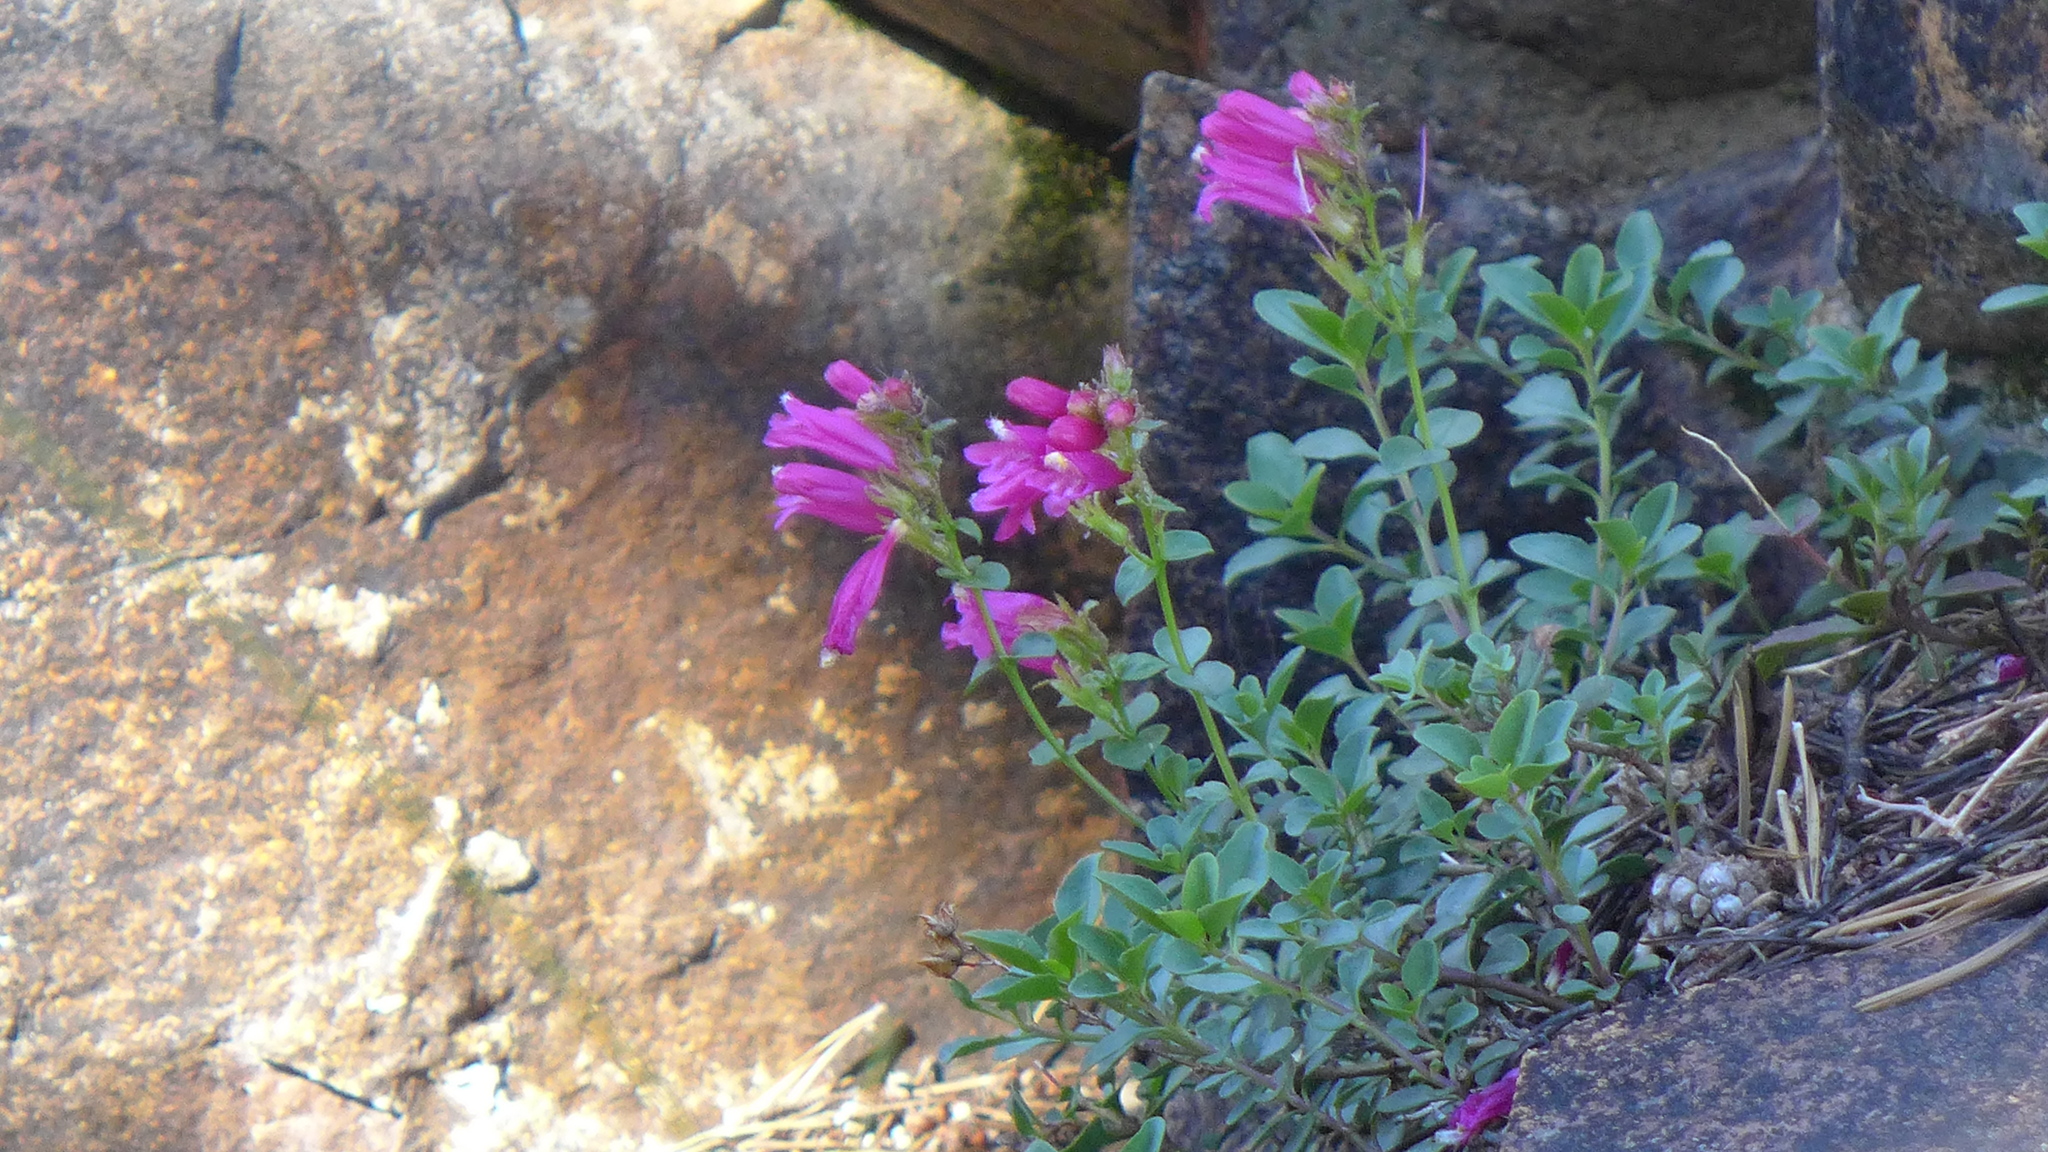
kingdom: Plantae
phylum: Tracheophyta
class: Magnoliopsida
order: Lamiales
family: Plantaginaceae
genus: Penstemon
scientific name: Penstemon newberryi
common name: Mountain-pride
